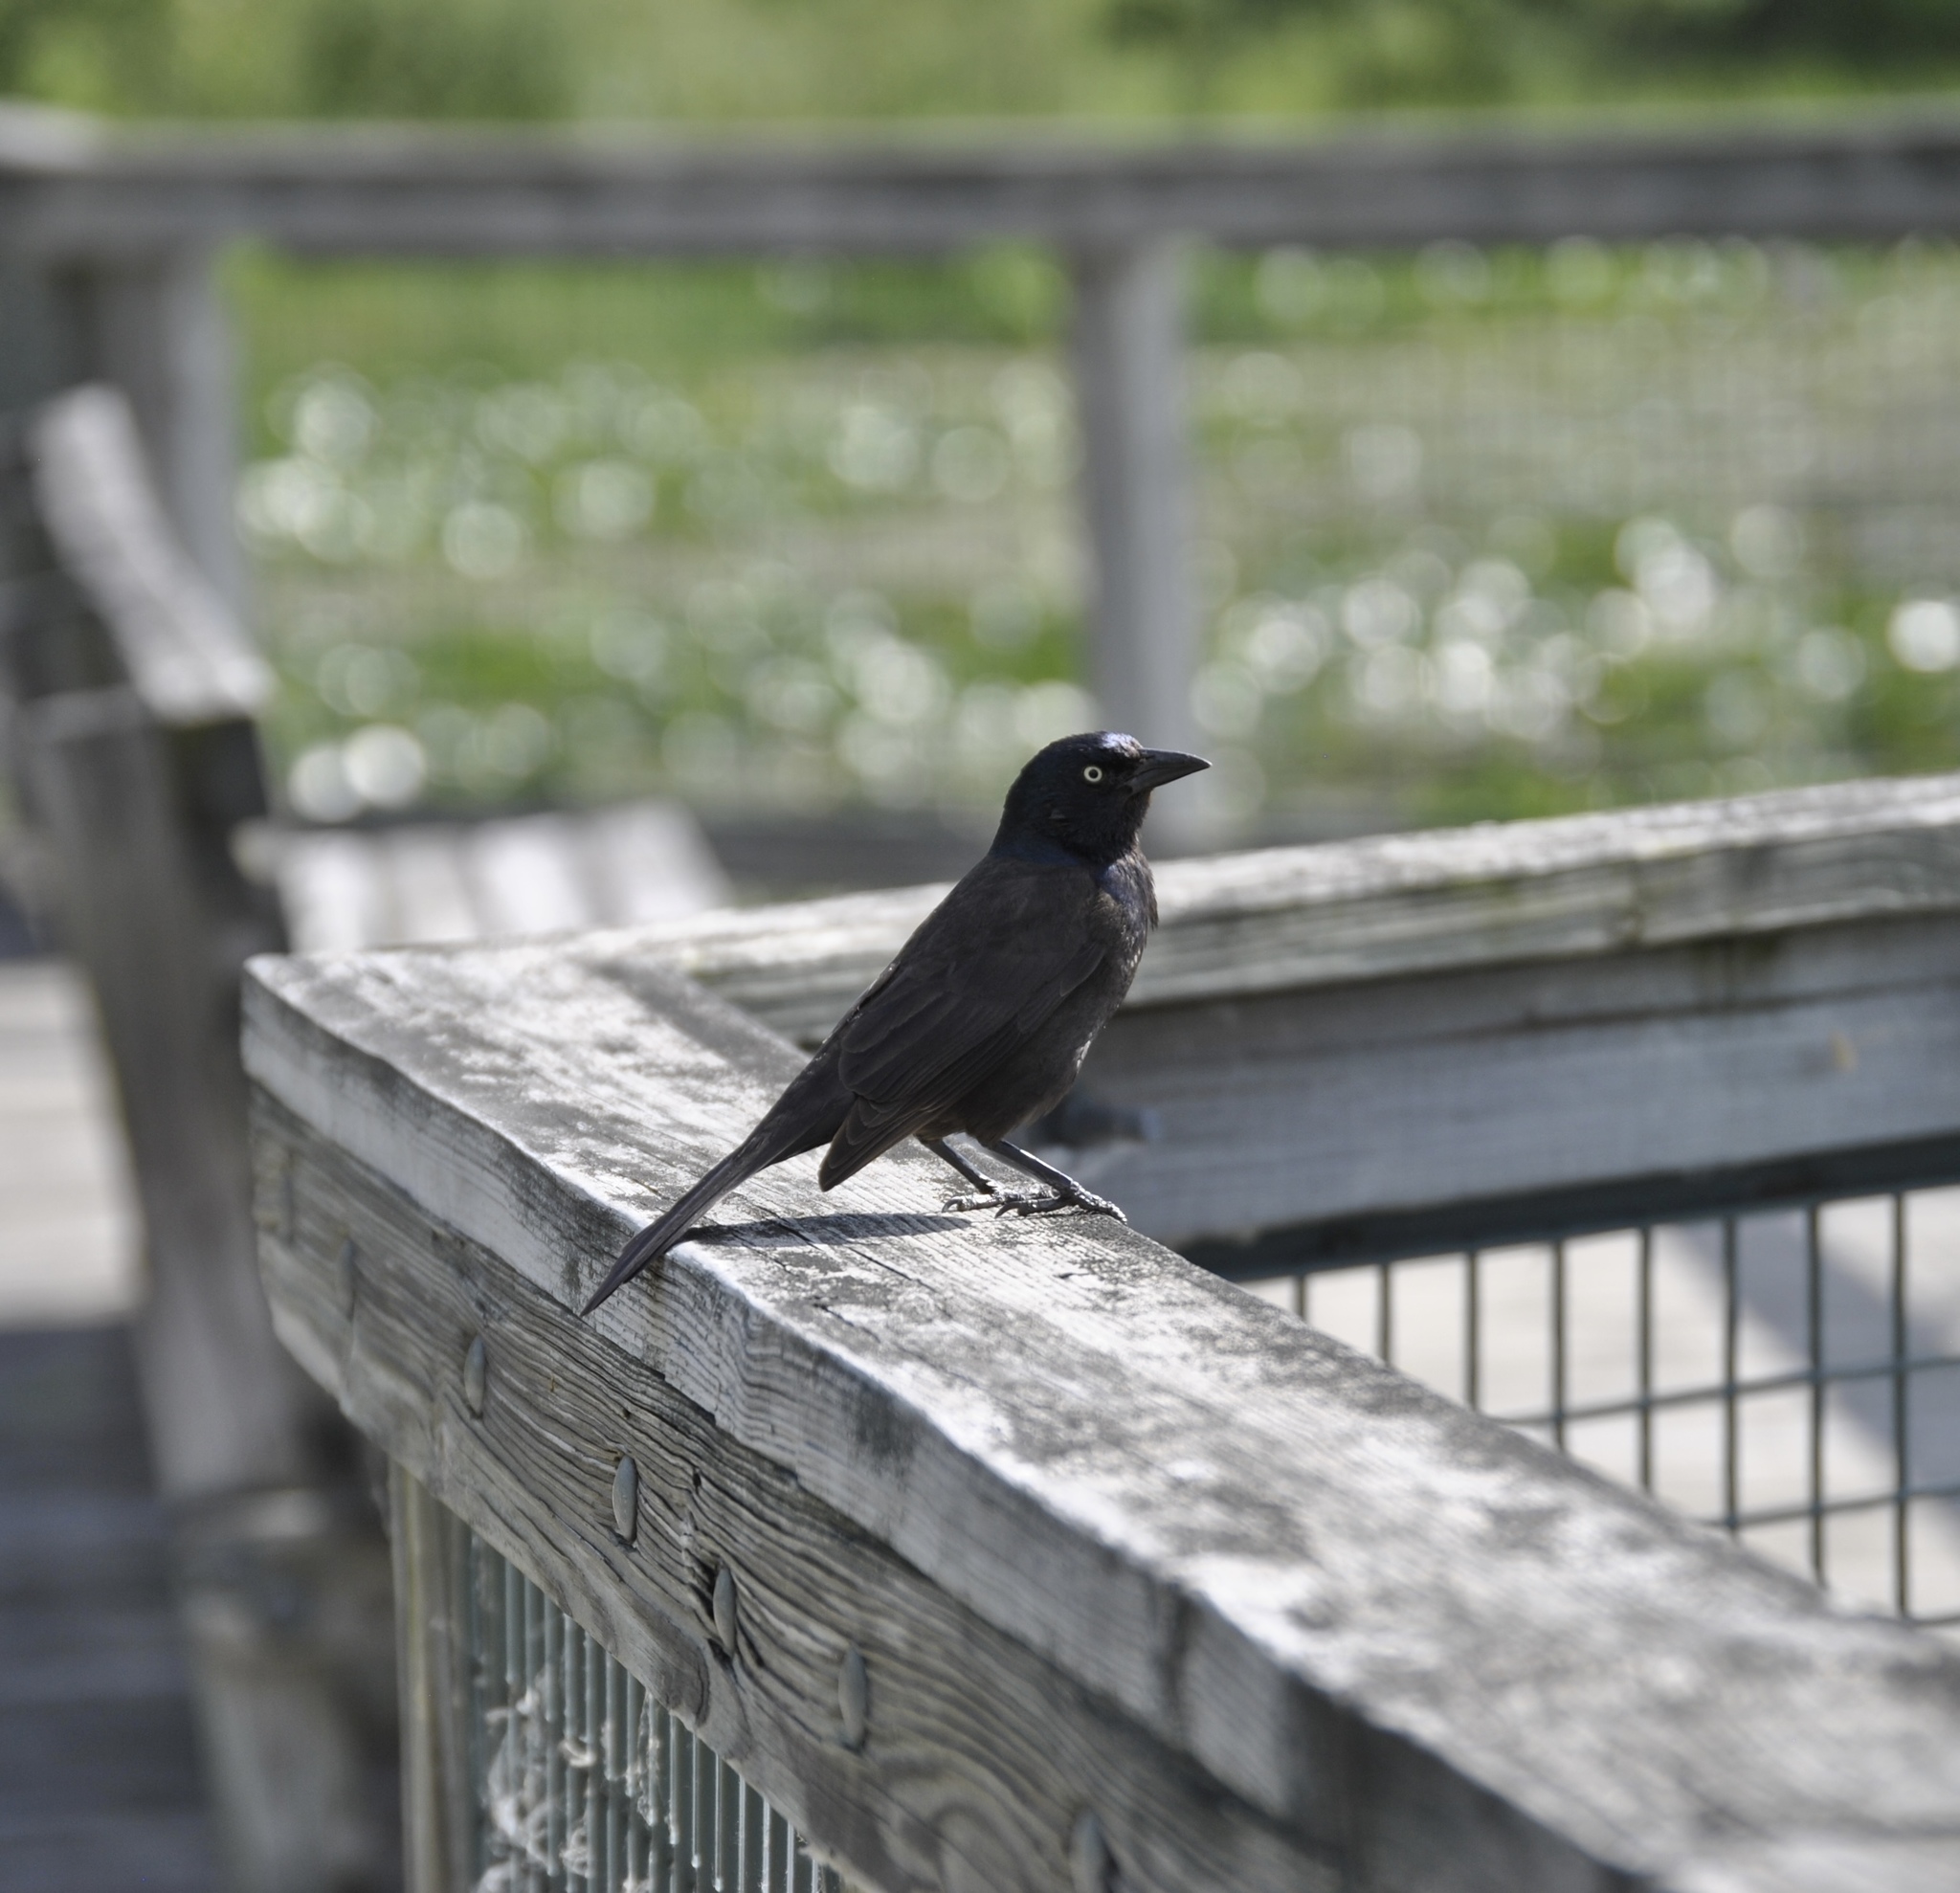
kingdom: Animalia
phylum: Chordata
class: Aves
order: Passeriformes
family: Icteridae
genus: Quiscalus
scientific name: Quiscalus quiscula
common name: Common grackle
